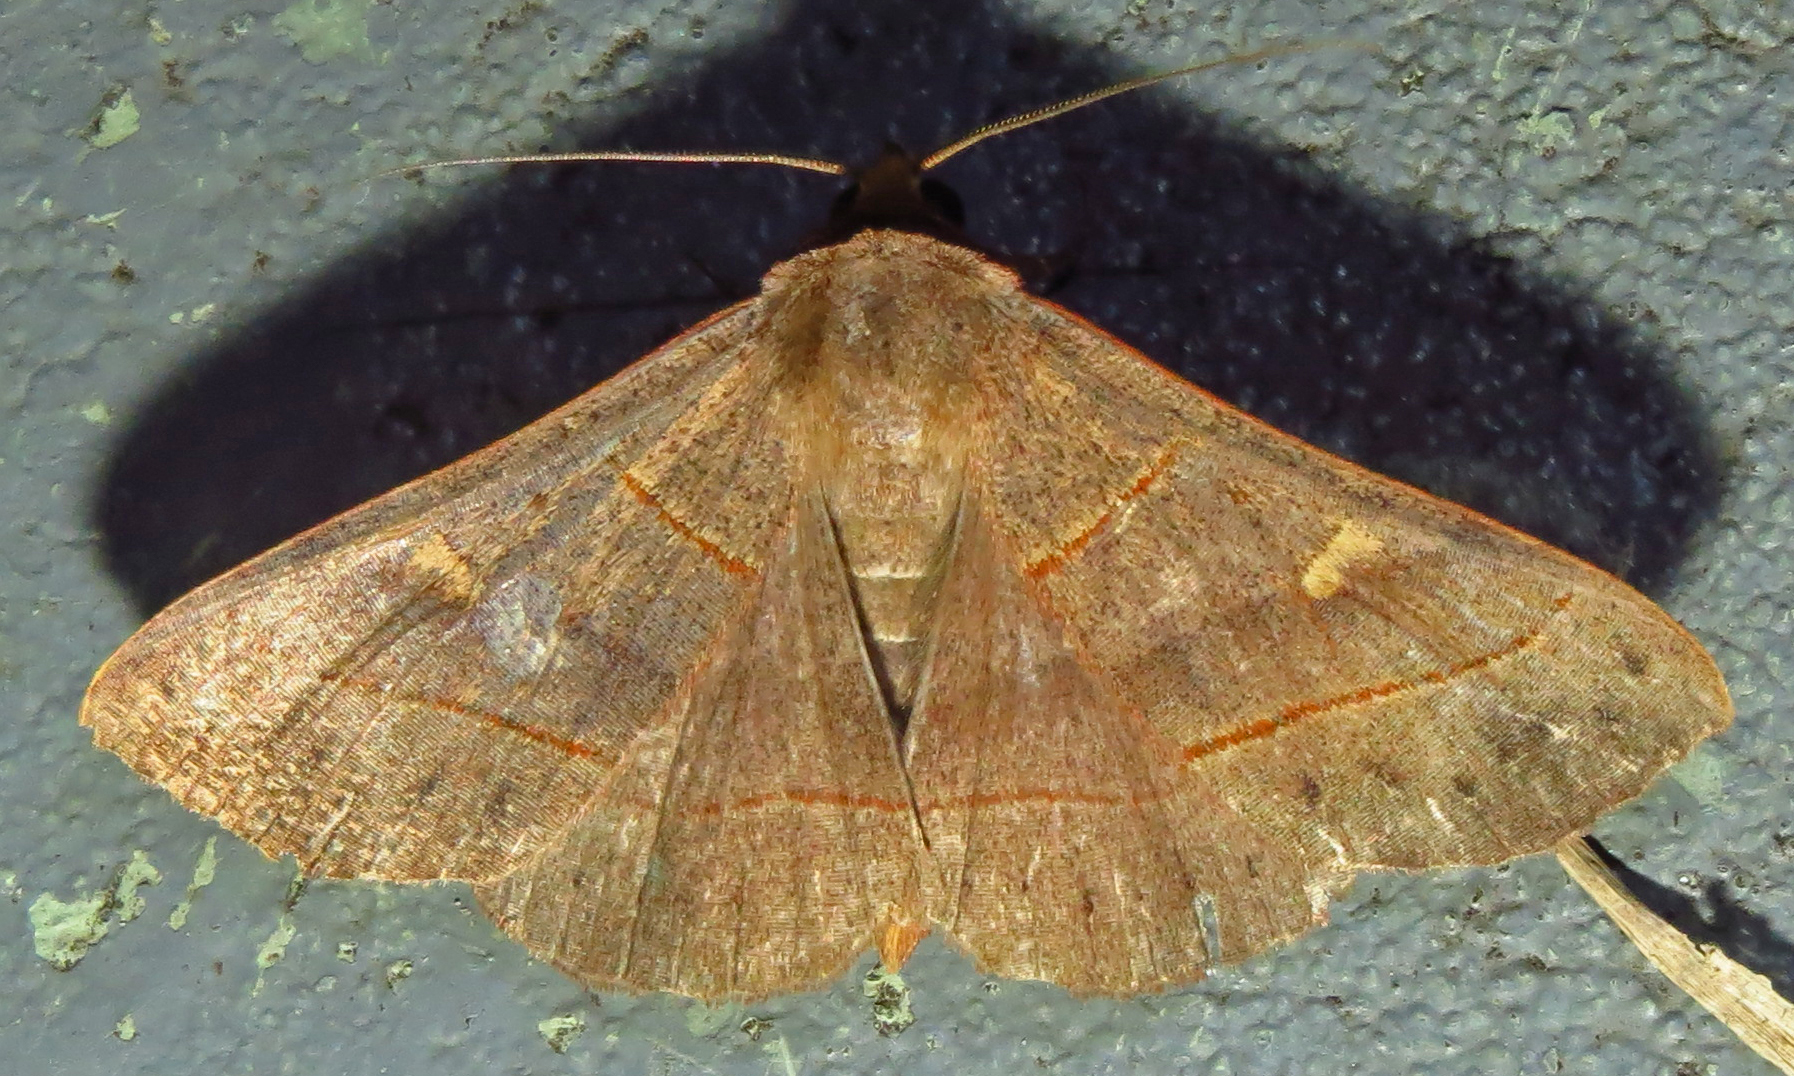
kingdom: Animalia
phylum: Arthropoda
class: Insecta
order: Lepidoptera
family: Erebidae
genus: Panopoda
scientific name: Panopoda rufimargo
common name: Red-lined panopoda moth
